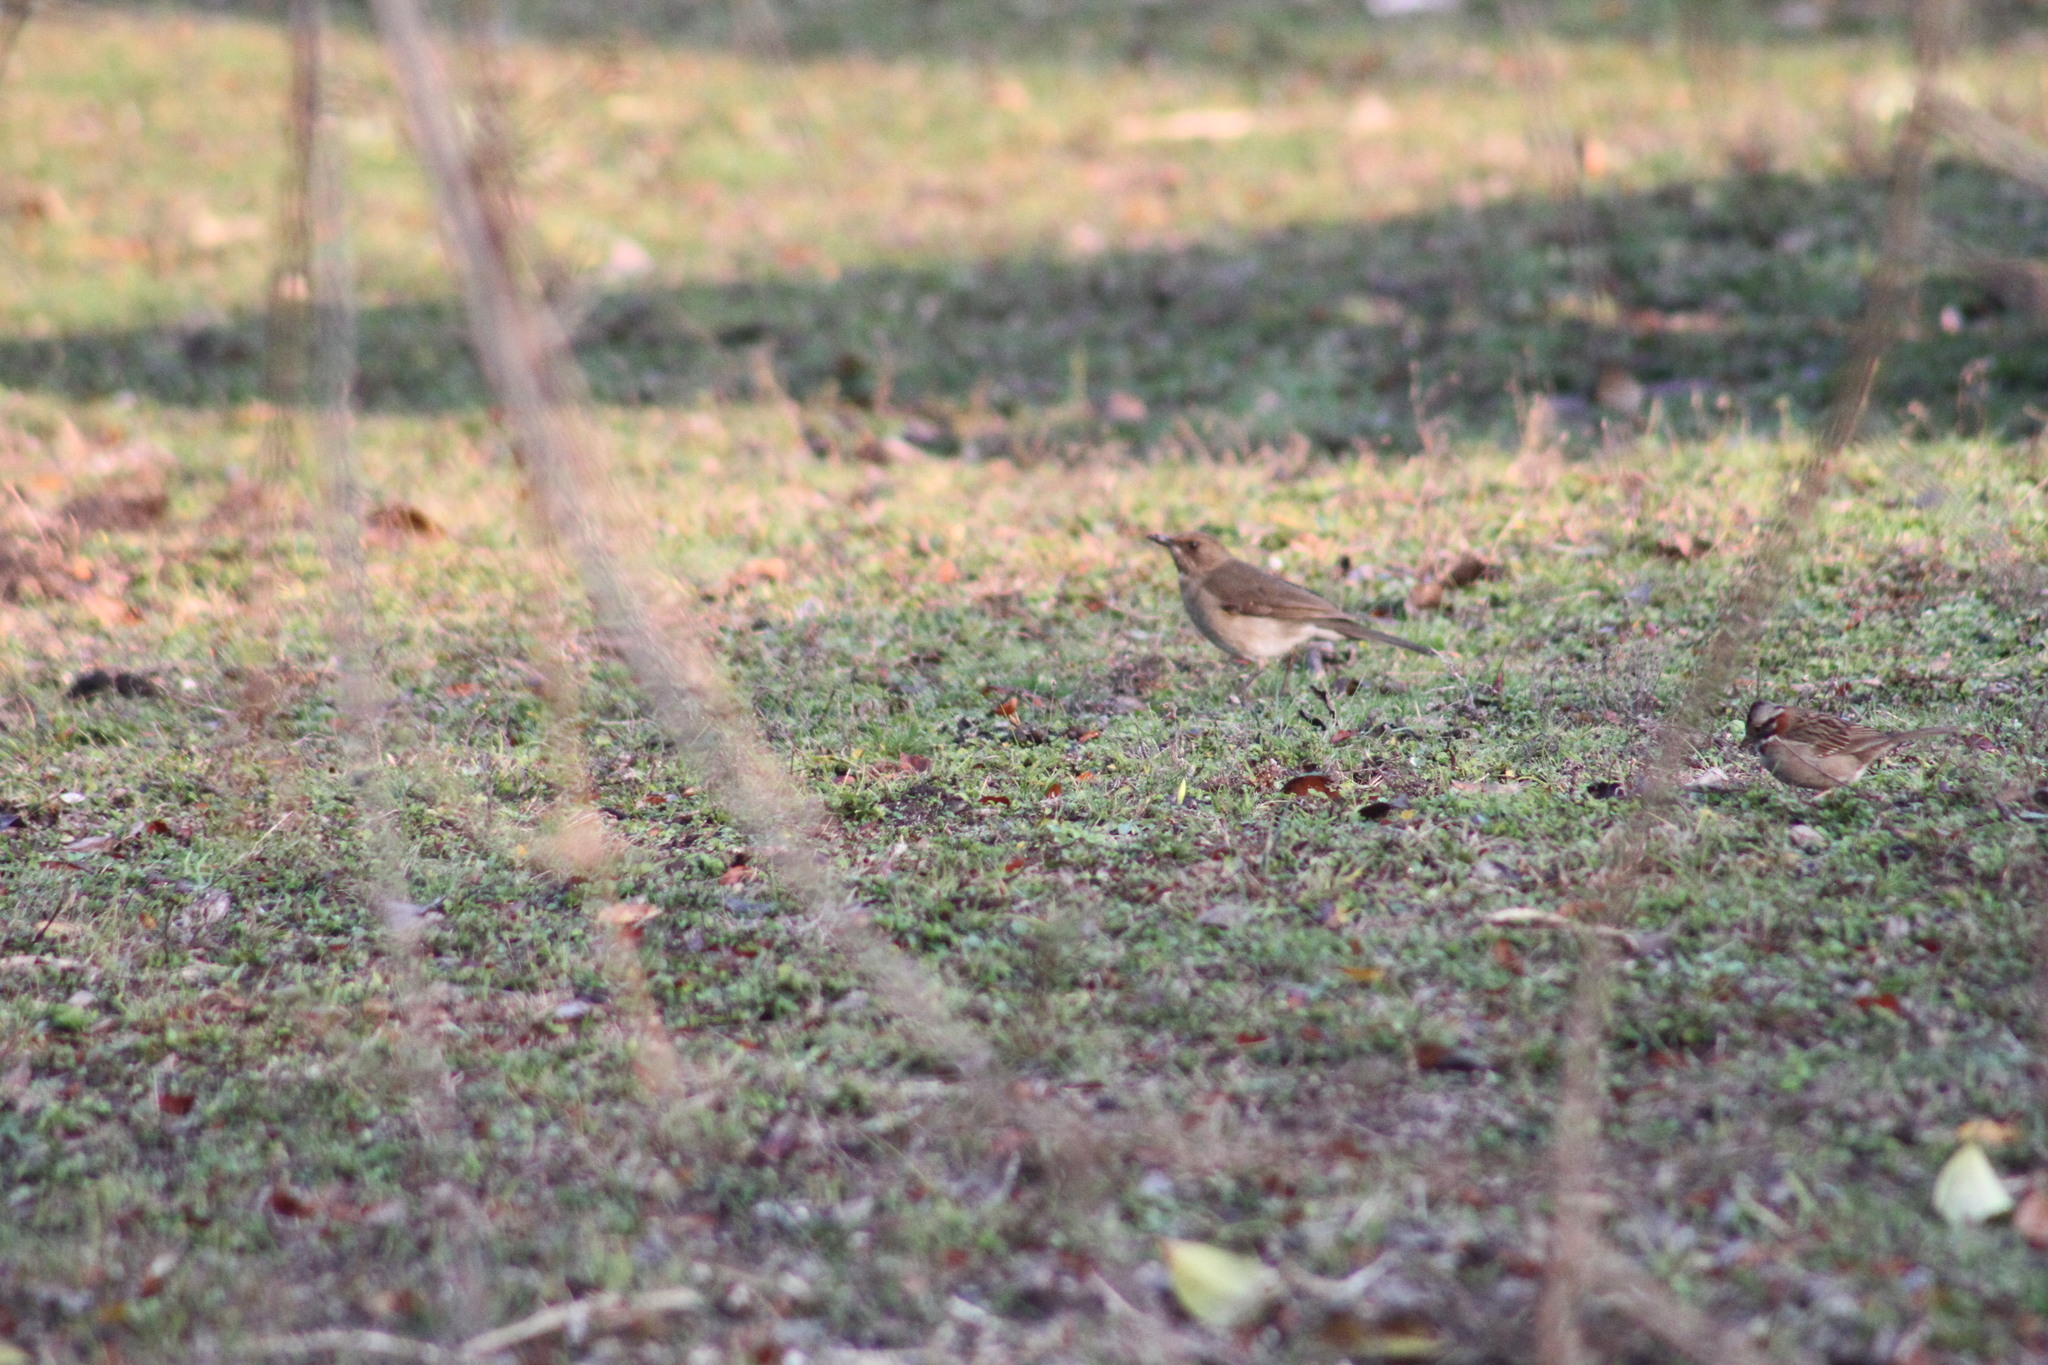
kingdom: Animalia
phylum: Chordata
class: Aves
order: Passeriformes
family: Turdidae
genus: Turdus
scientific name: Turdus amaurochalinus
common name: Creamy-bellied thrush
